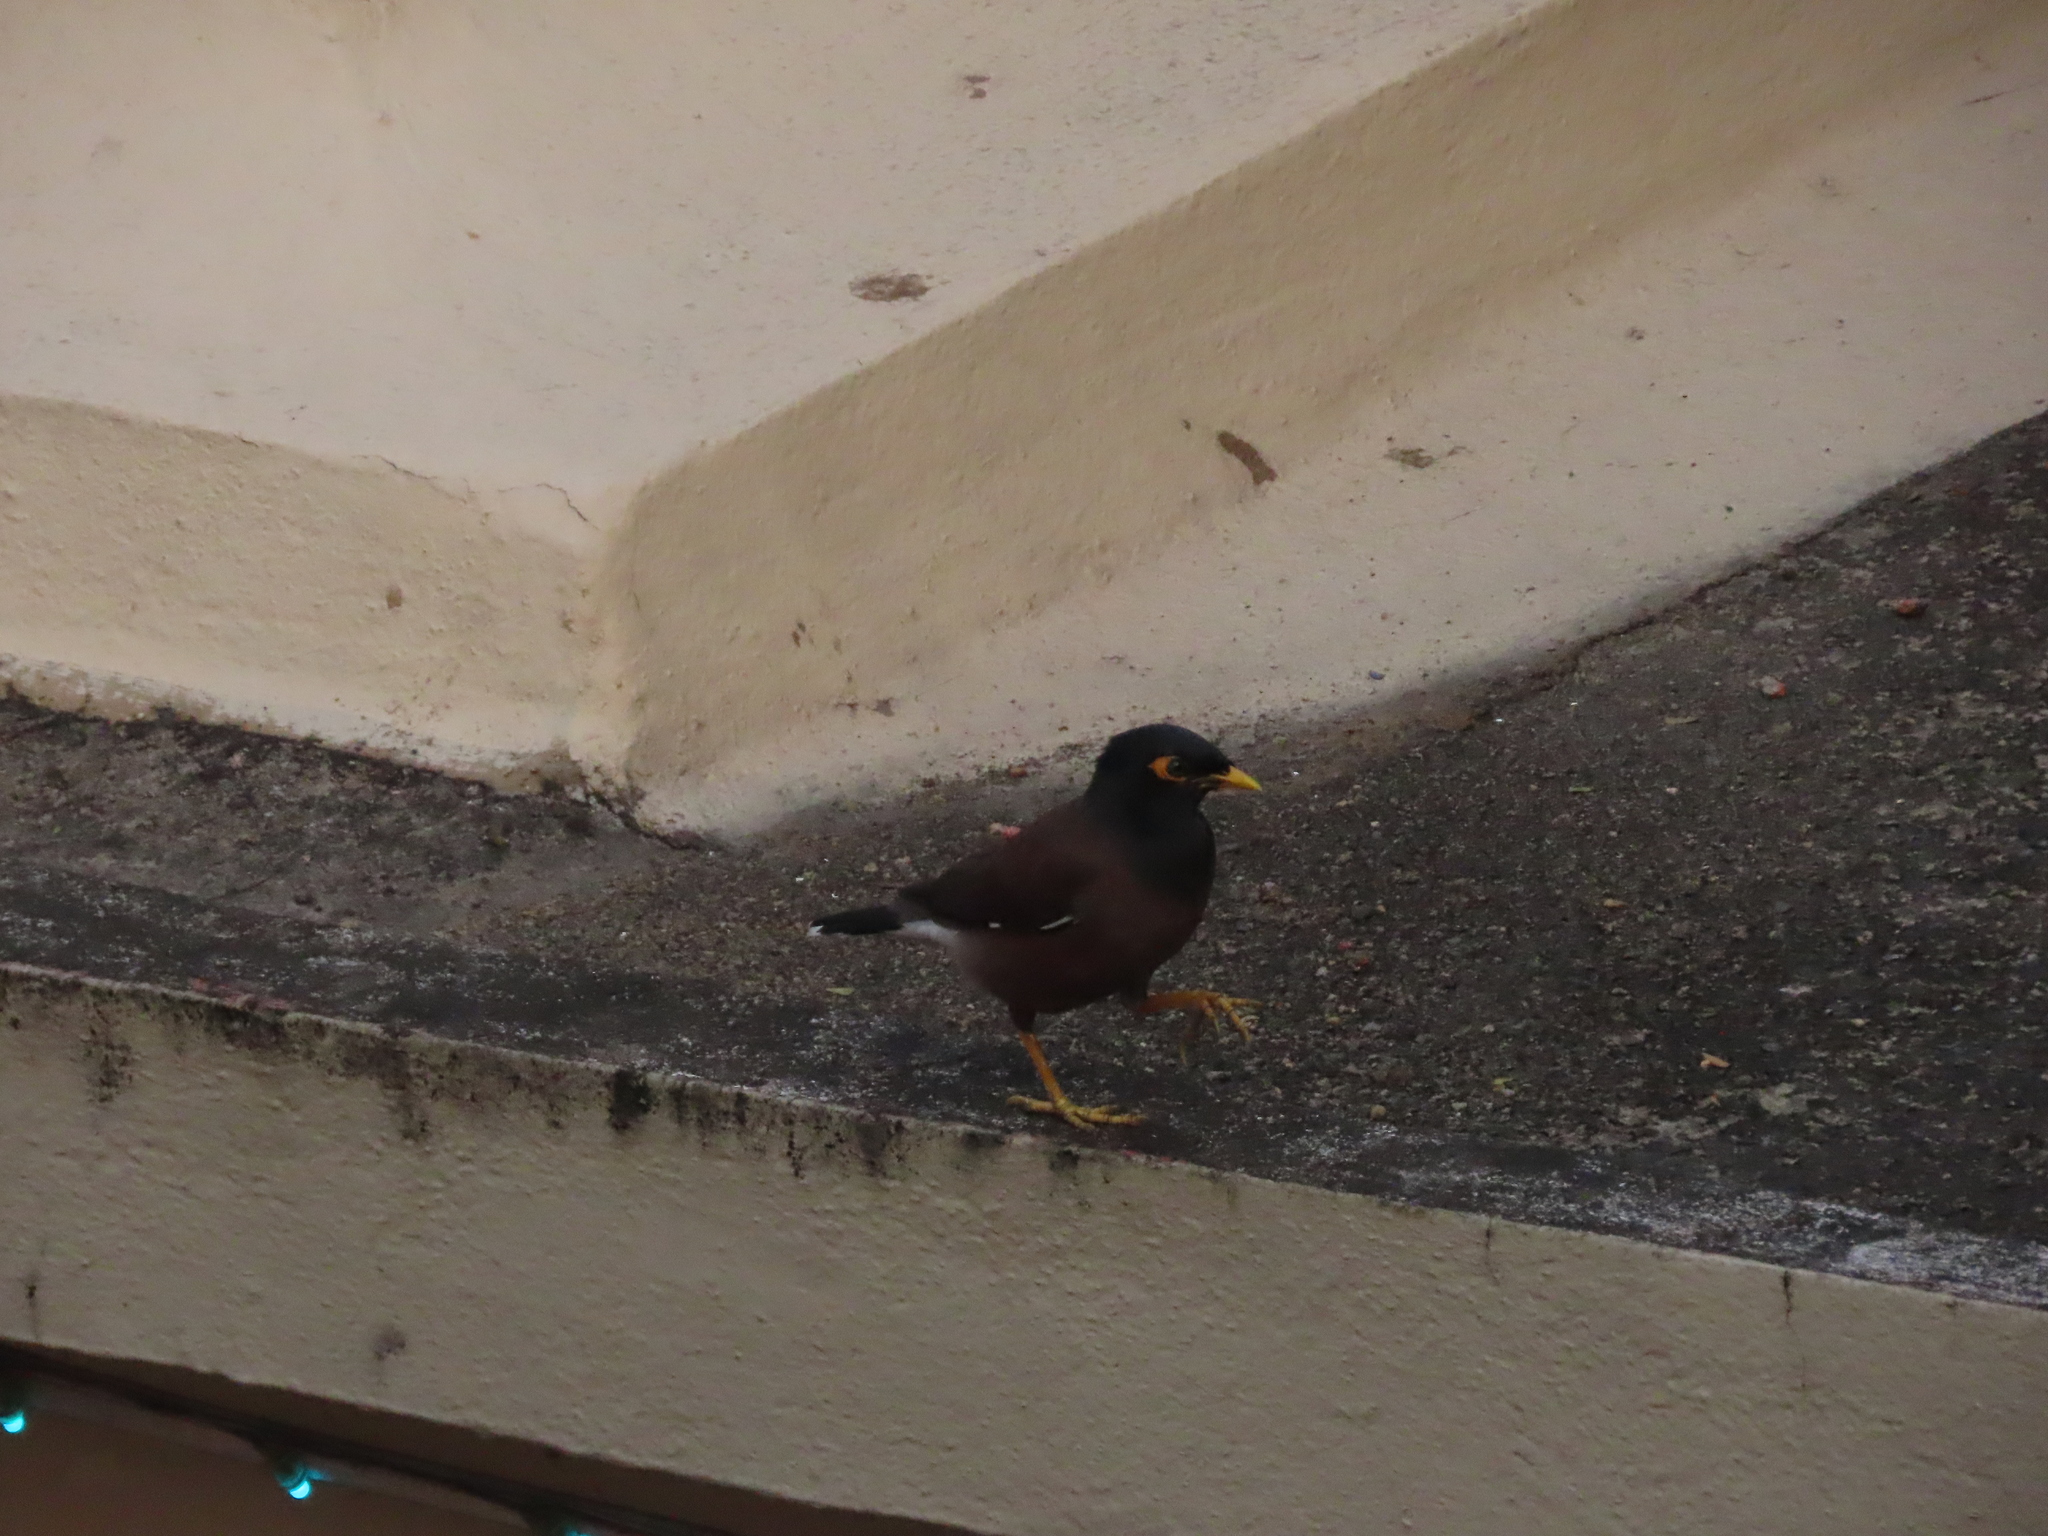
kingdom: Animalia
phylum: Chordata
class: Aves
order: Passeriformes
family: Sturnidae
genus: Acridotheres
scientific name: Acridotheres tristis
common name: Common myna
